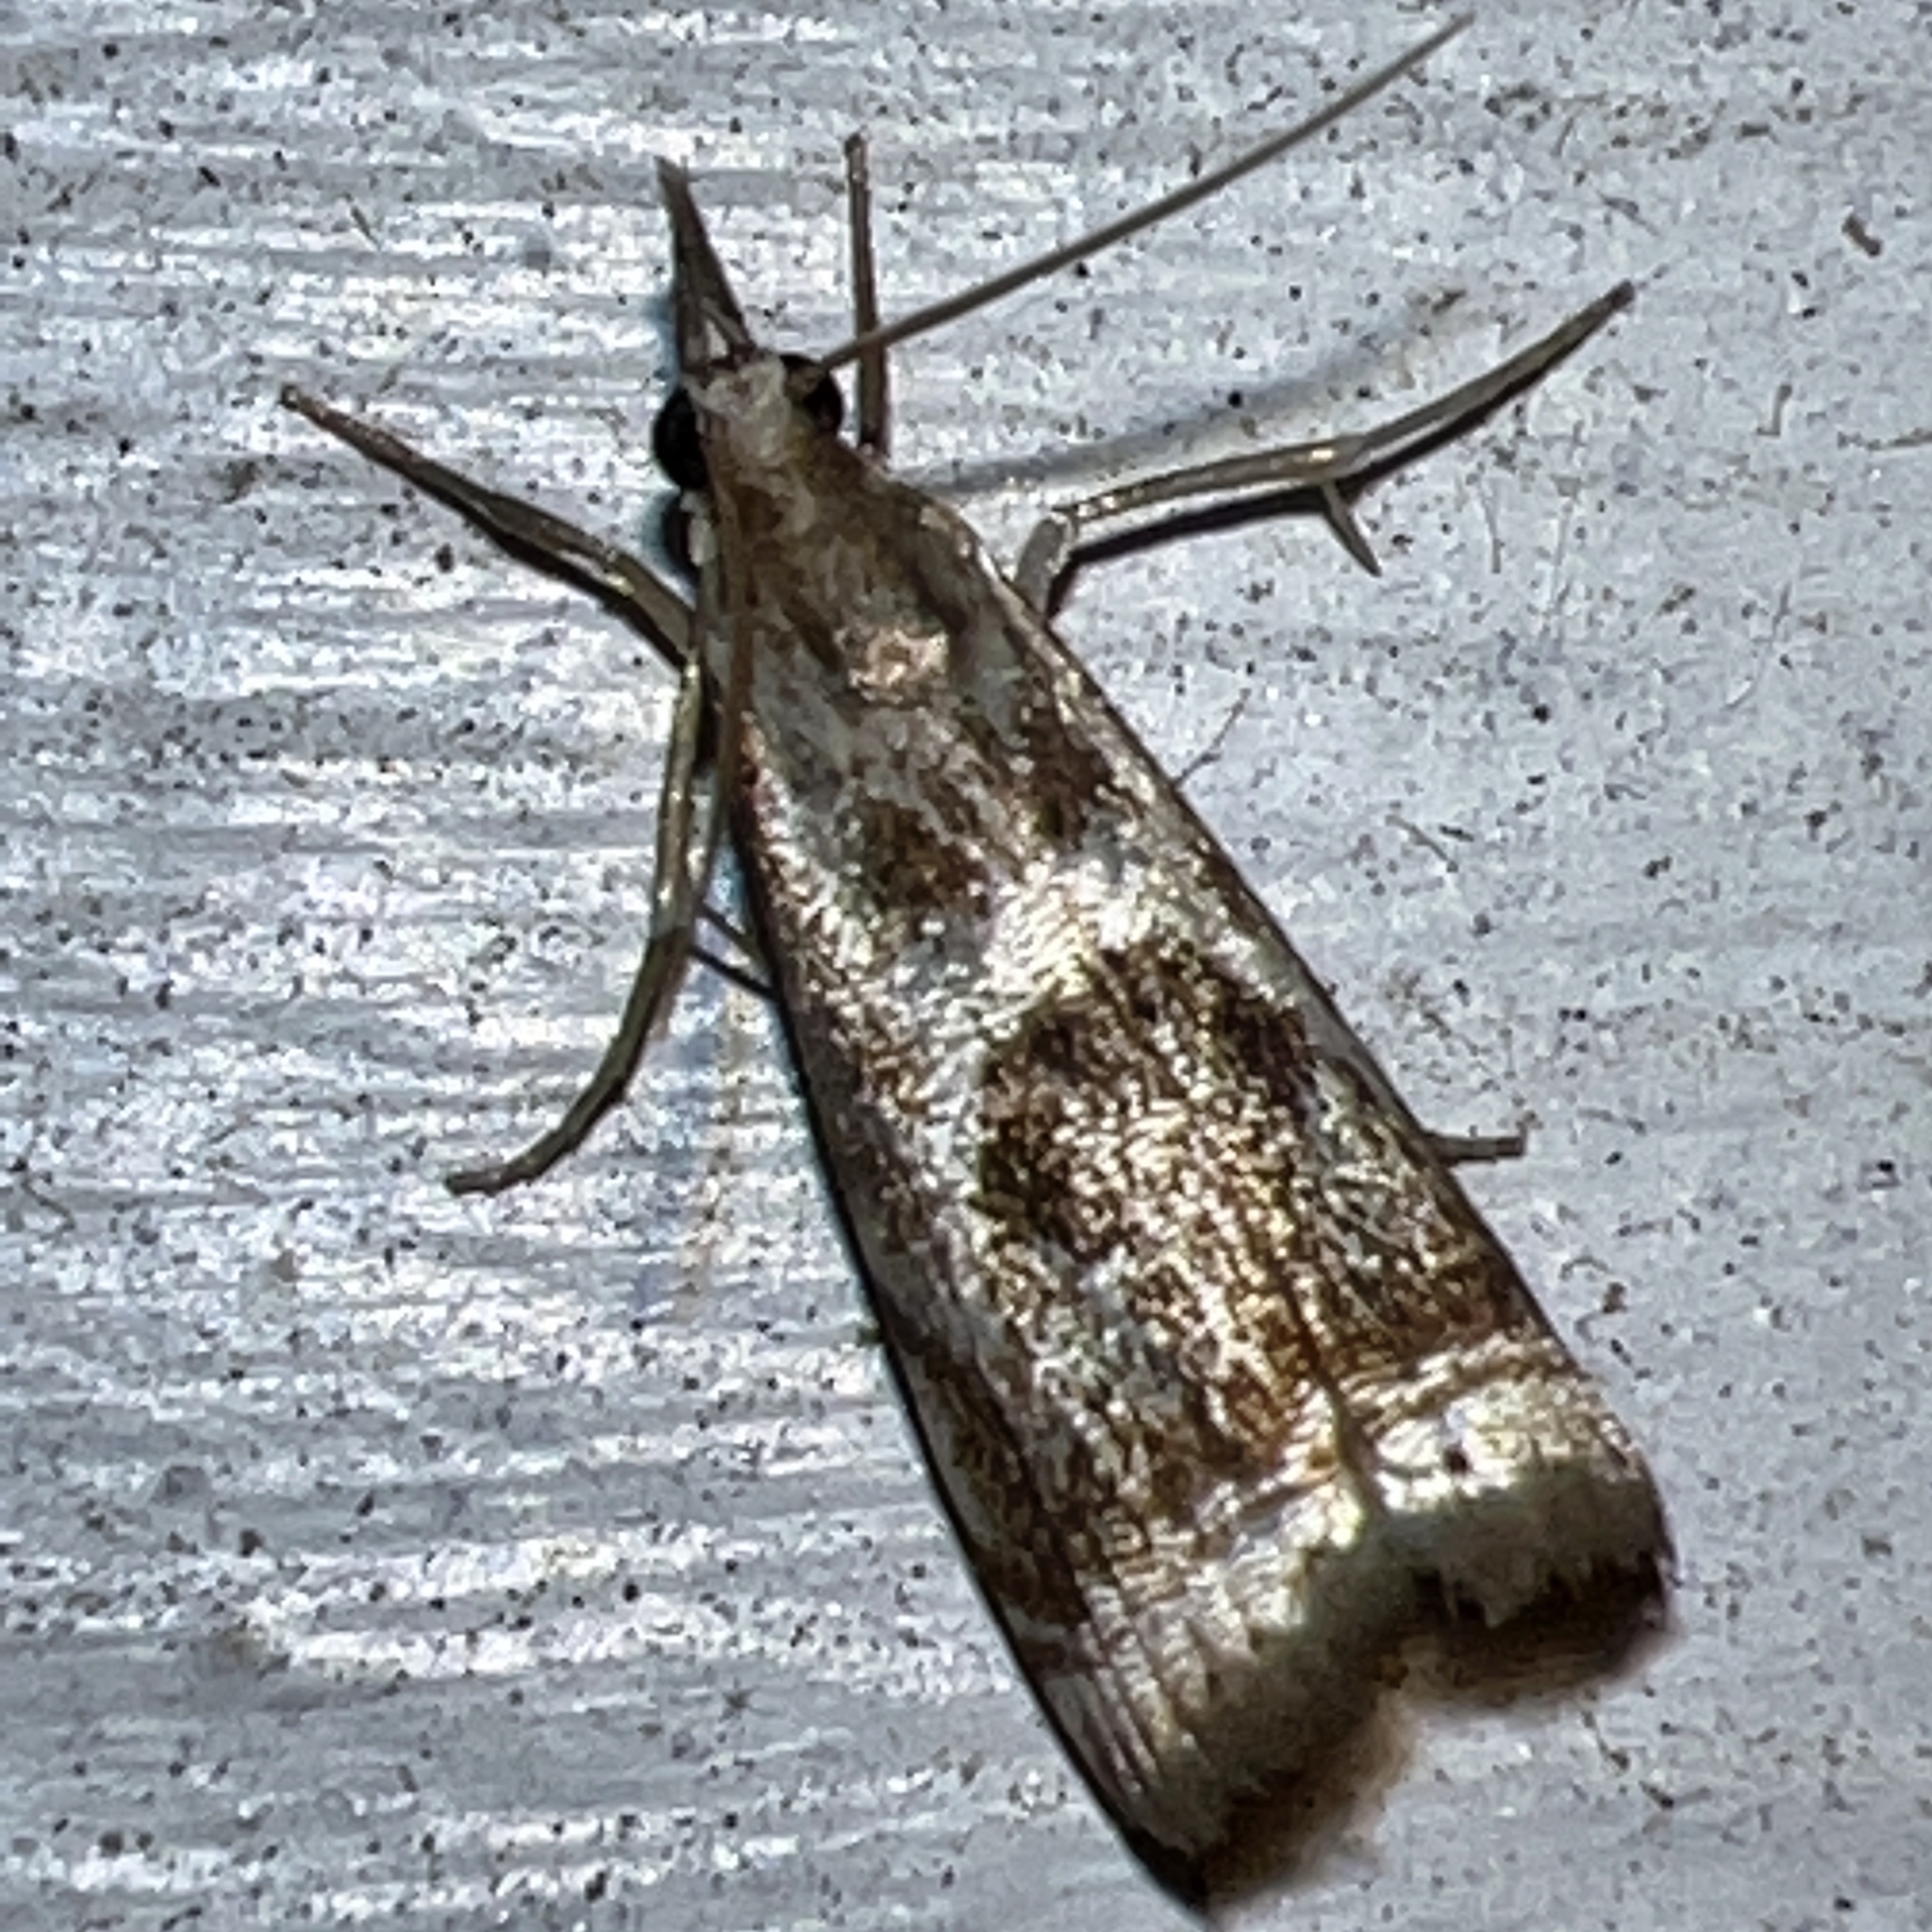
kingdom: Animalia
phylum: Arthropoda
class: Insecta
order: Lepidoptera
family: Crambidae
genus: Microcrambus
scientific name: Microcrambus elegans
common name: Elegant grass-veneer
